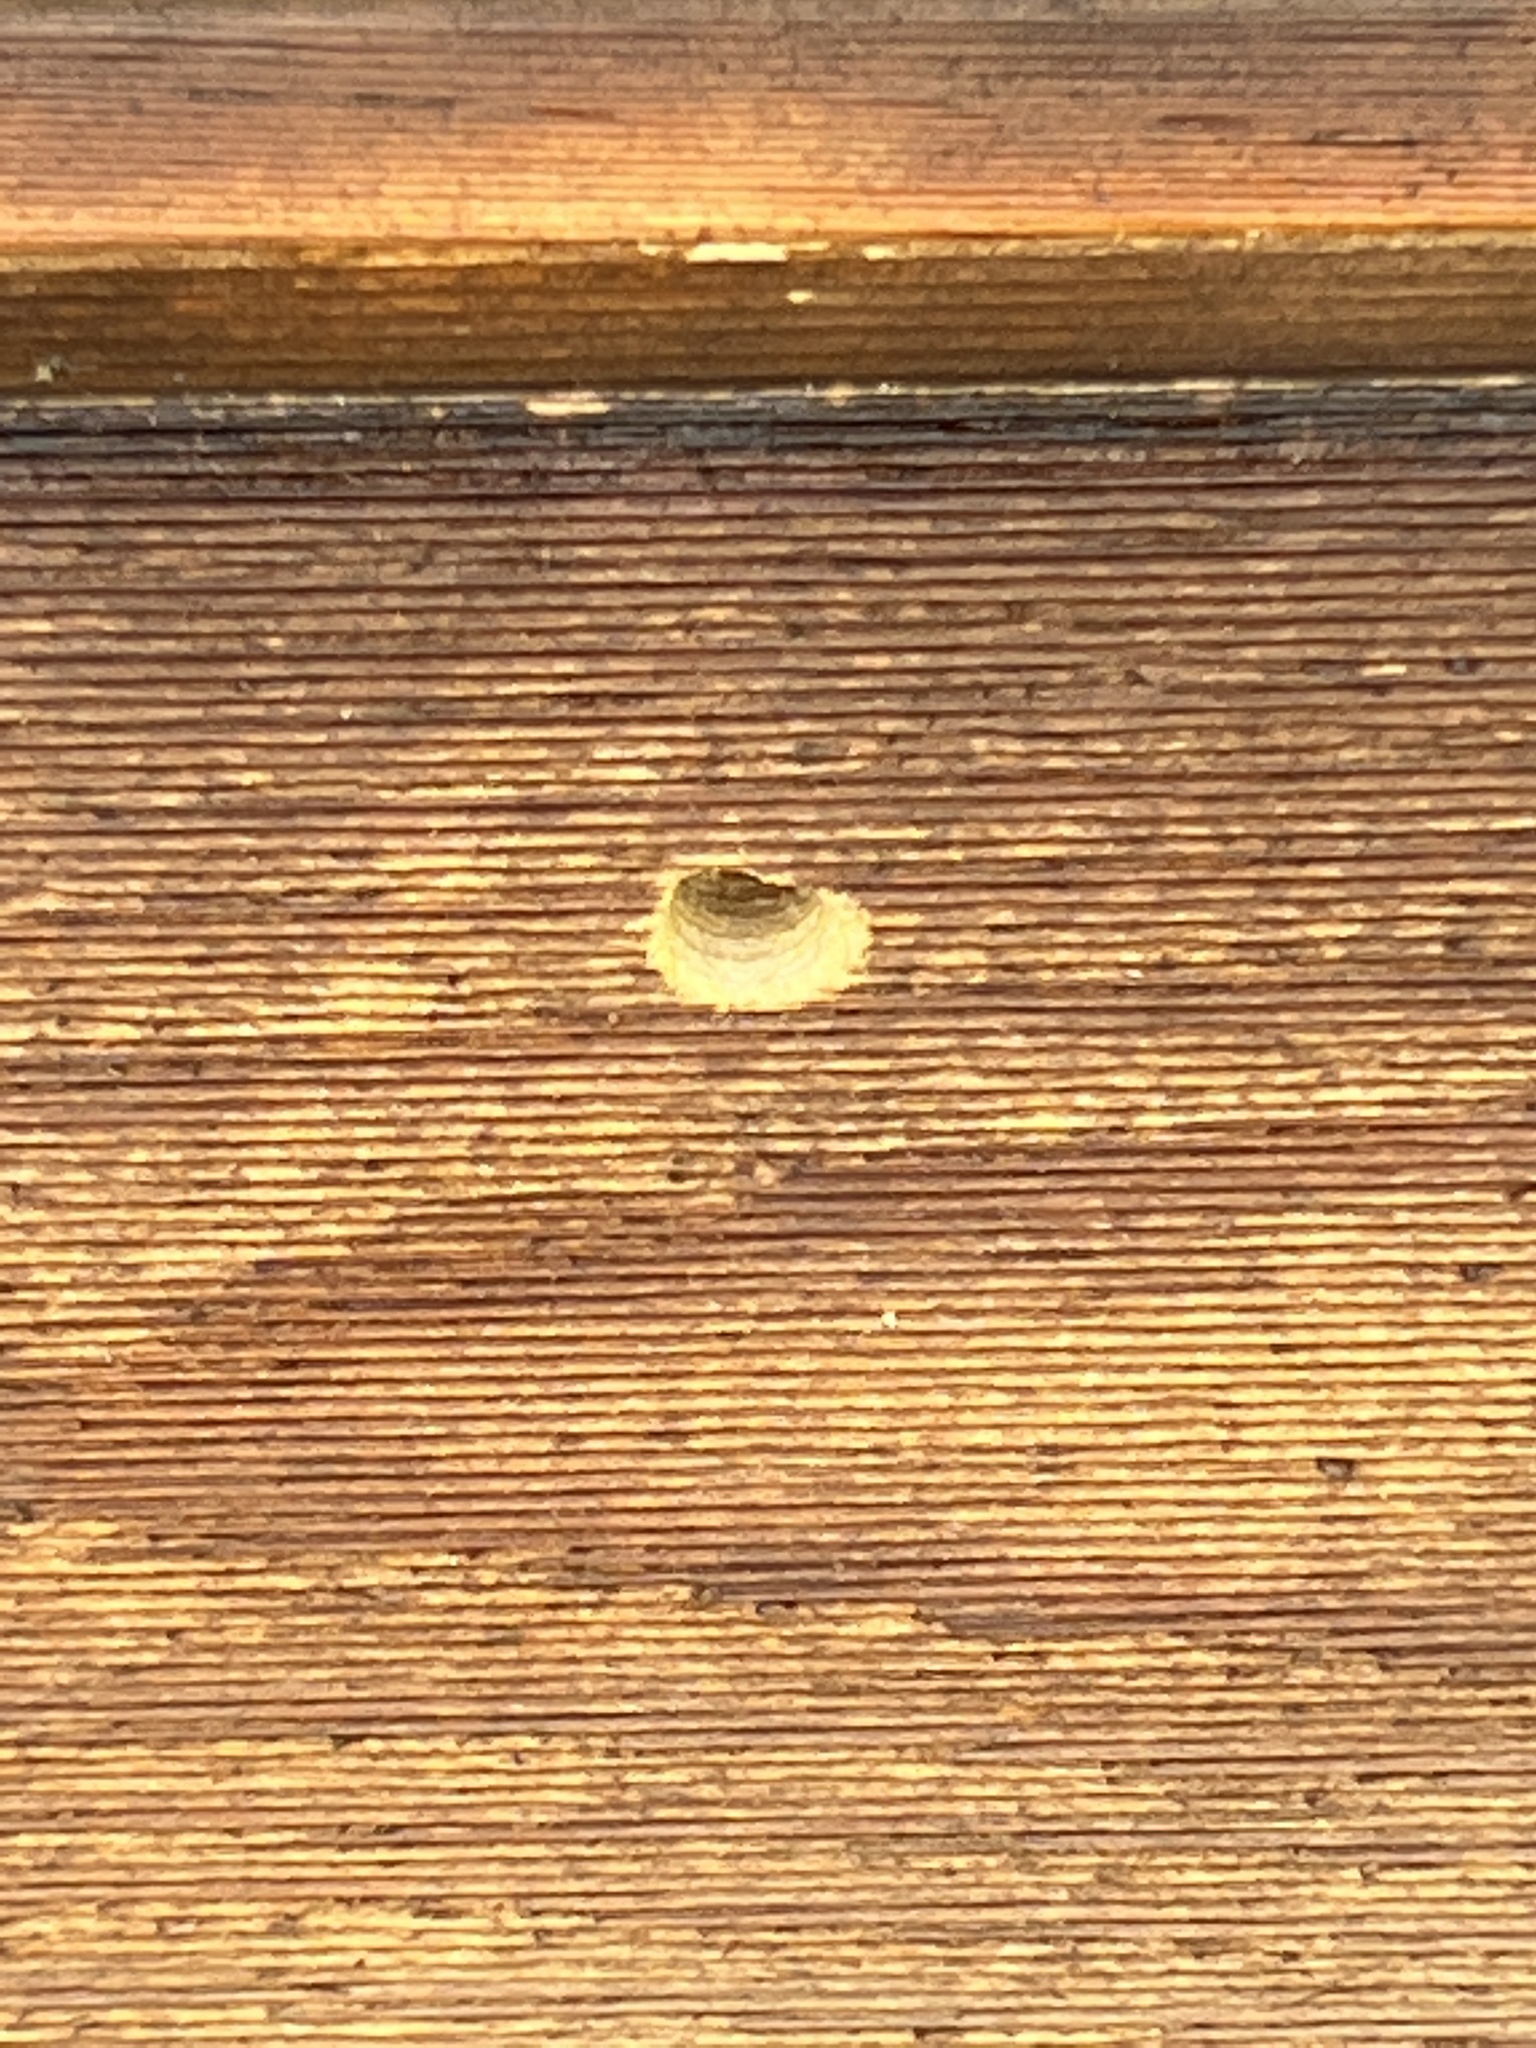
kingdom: Animalia
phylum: Arthropoda
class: Insecta
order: Hymenoptera
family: Apidae
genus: Xylocopa
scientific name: Xylocopa virginica
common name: Carpenter bee
